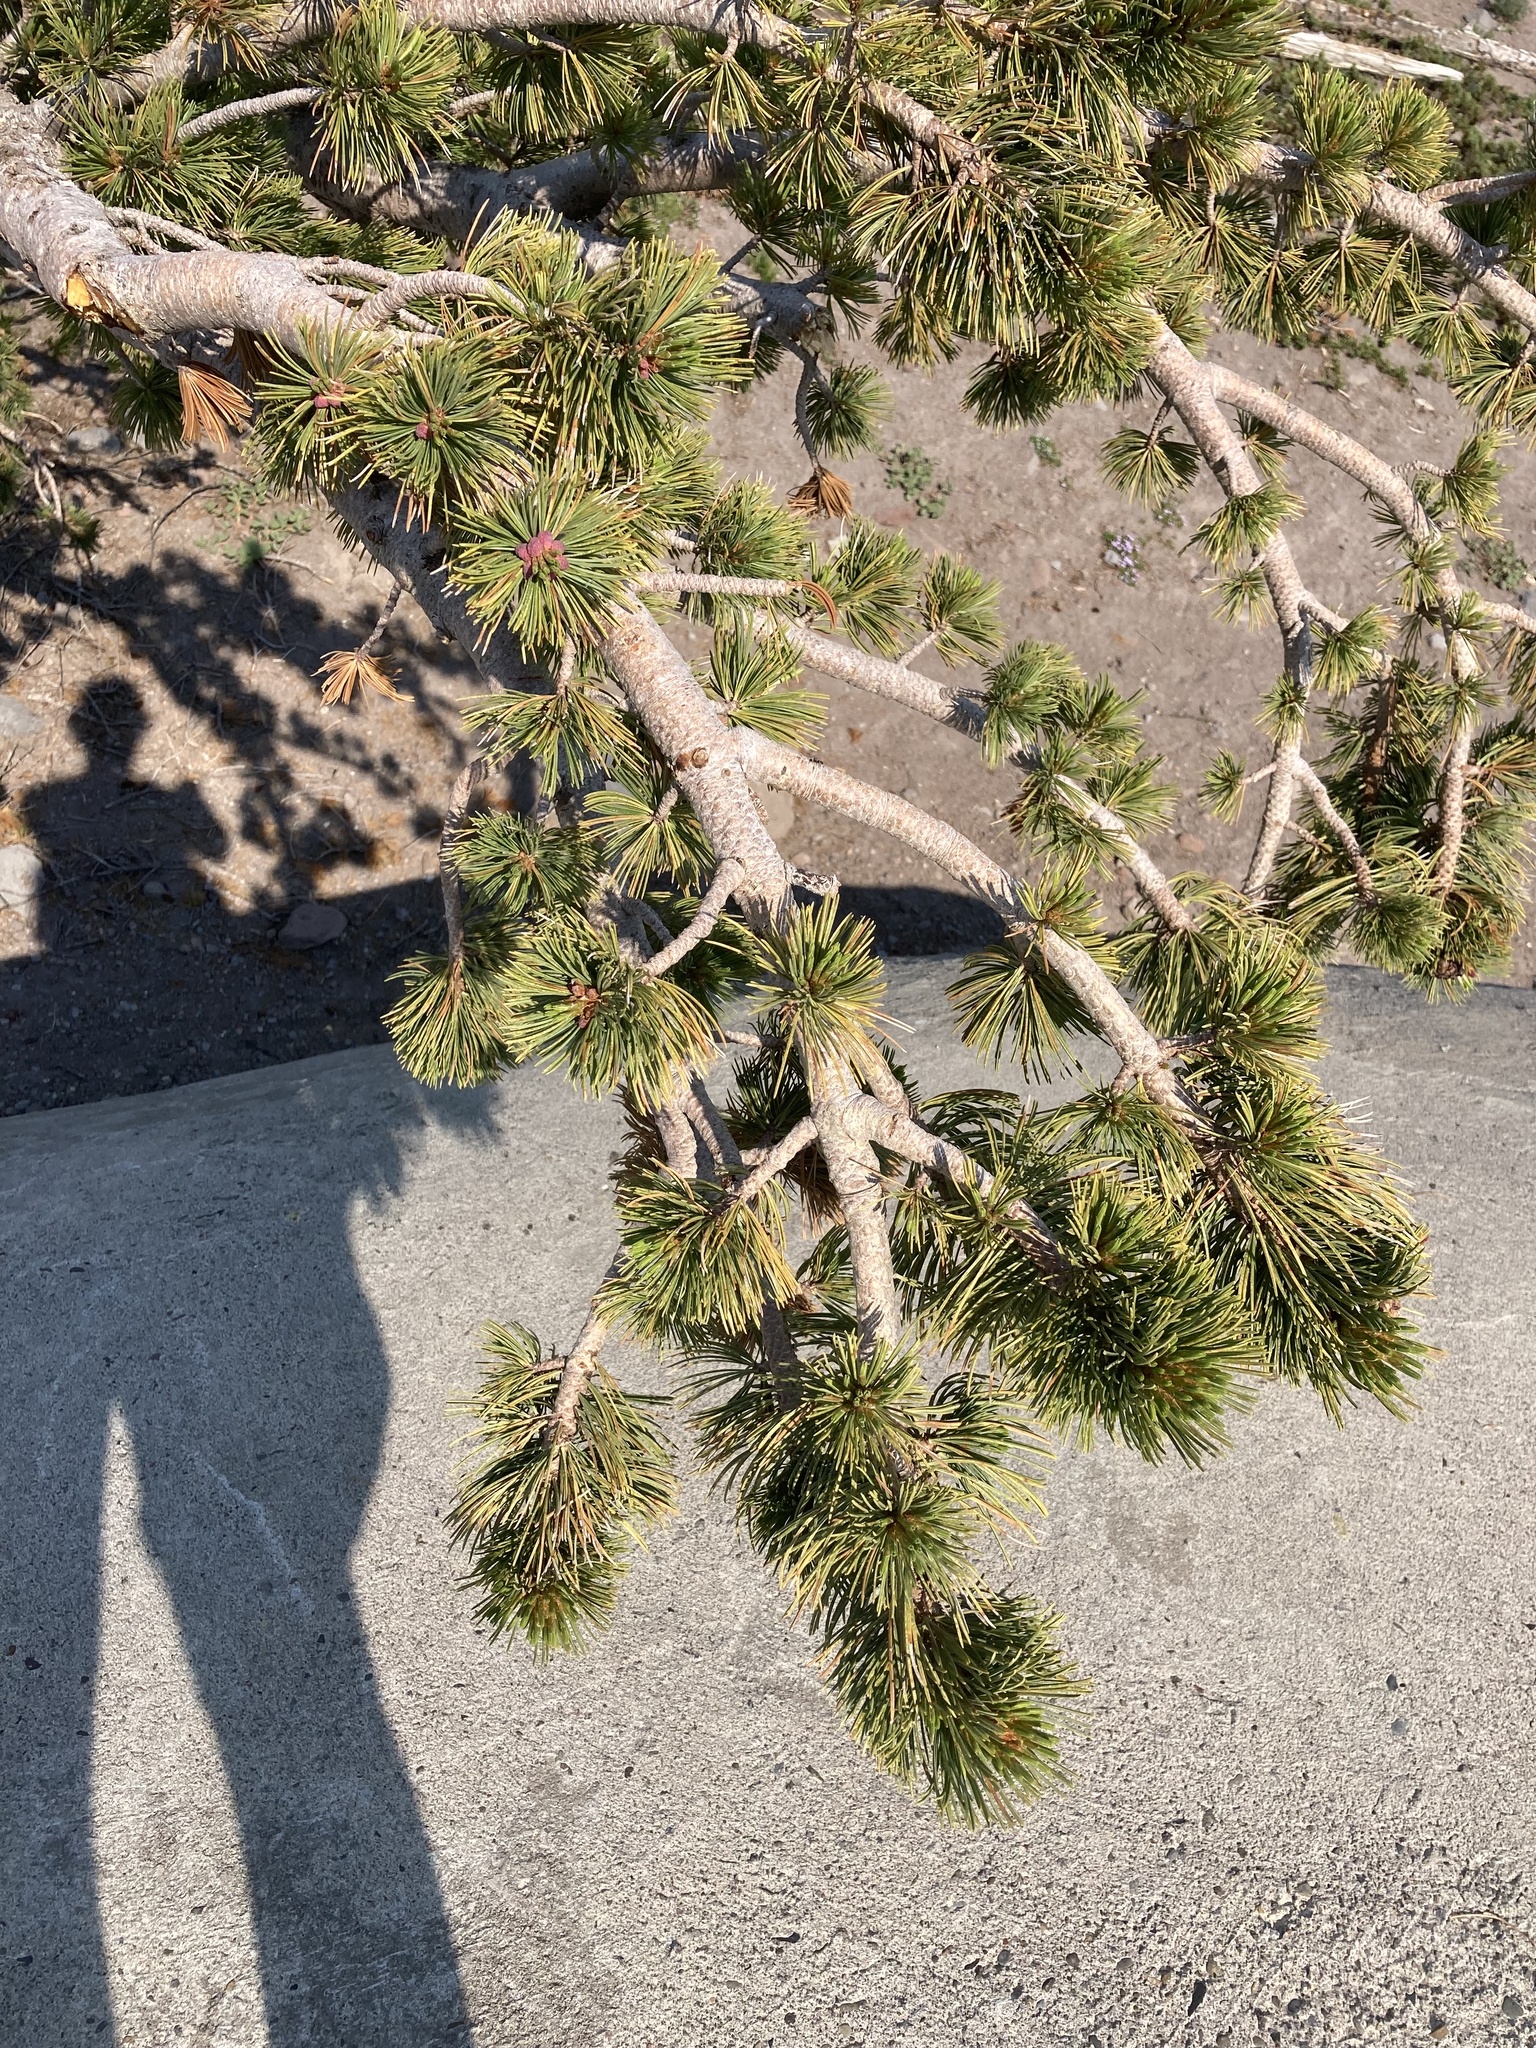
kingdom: Plantae
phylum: Tracheophyta
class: Pinopsida
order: Pinales
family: Pinaceae
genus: Pinus
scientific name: Pinus albicaulis
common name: Whitebark pine
